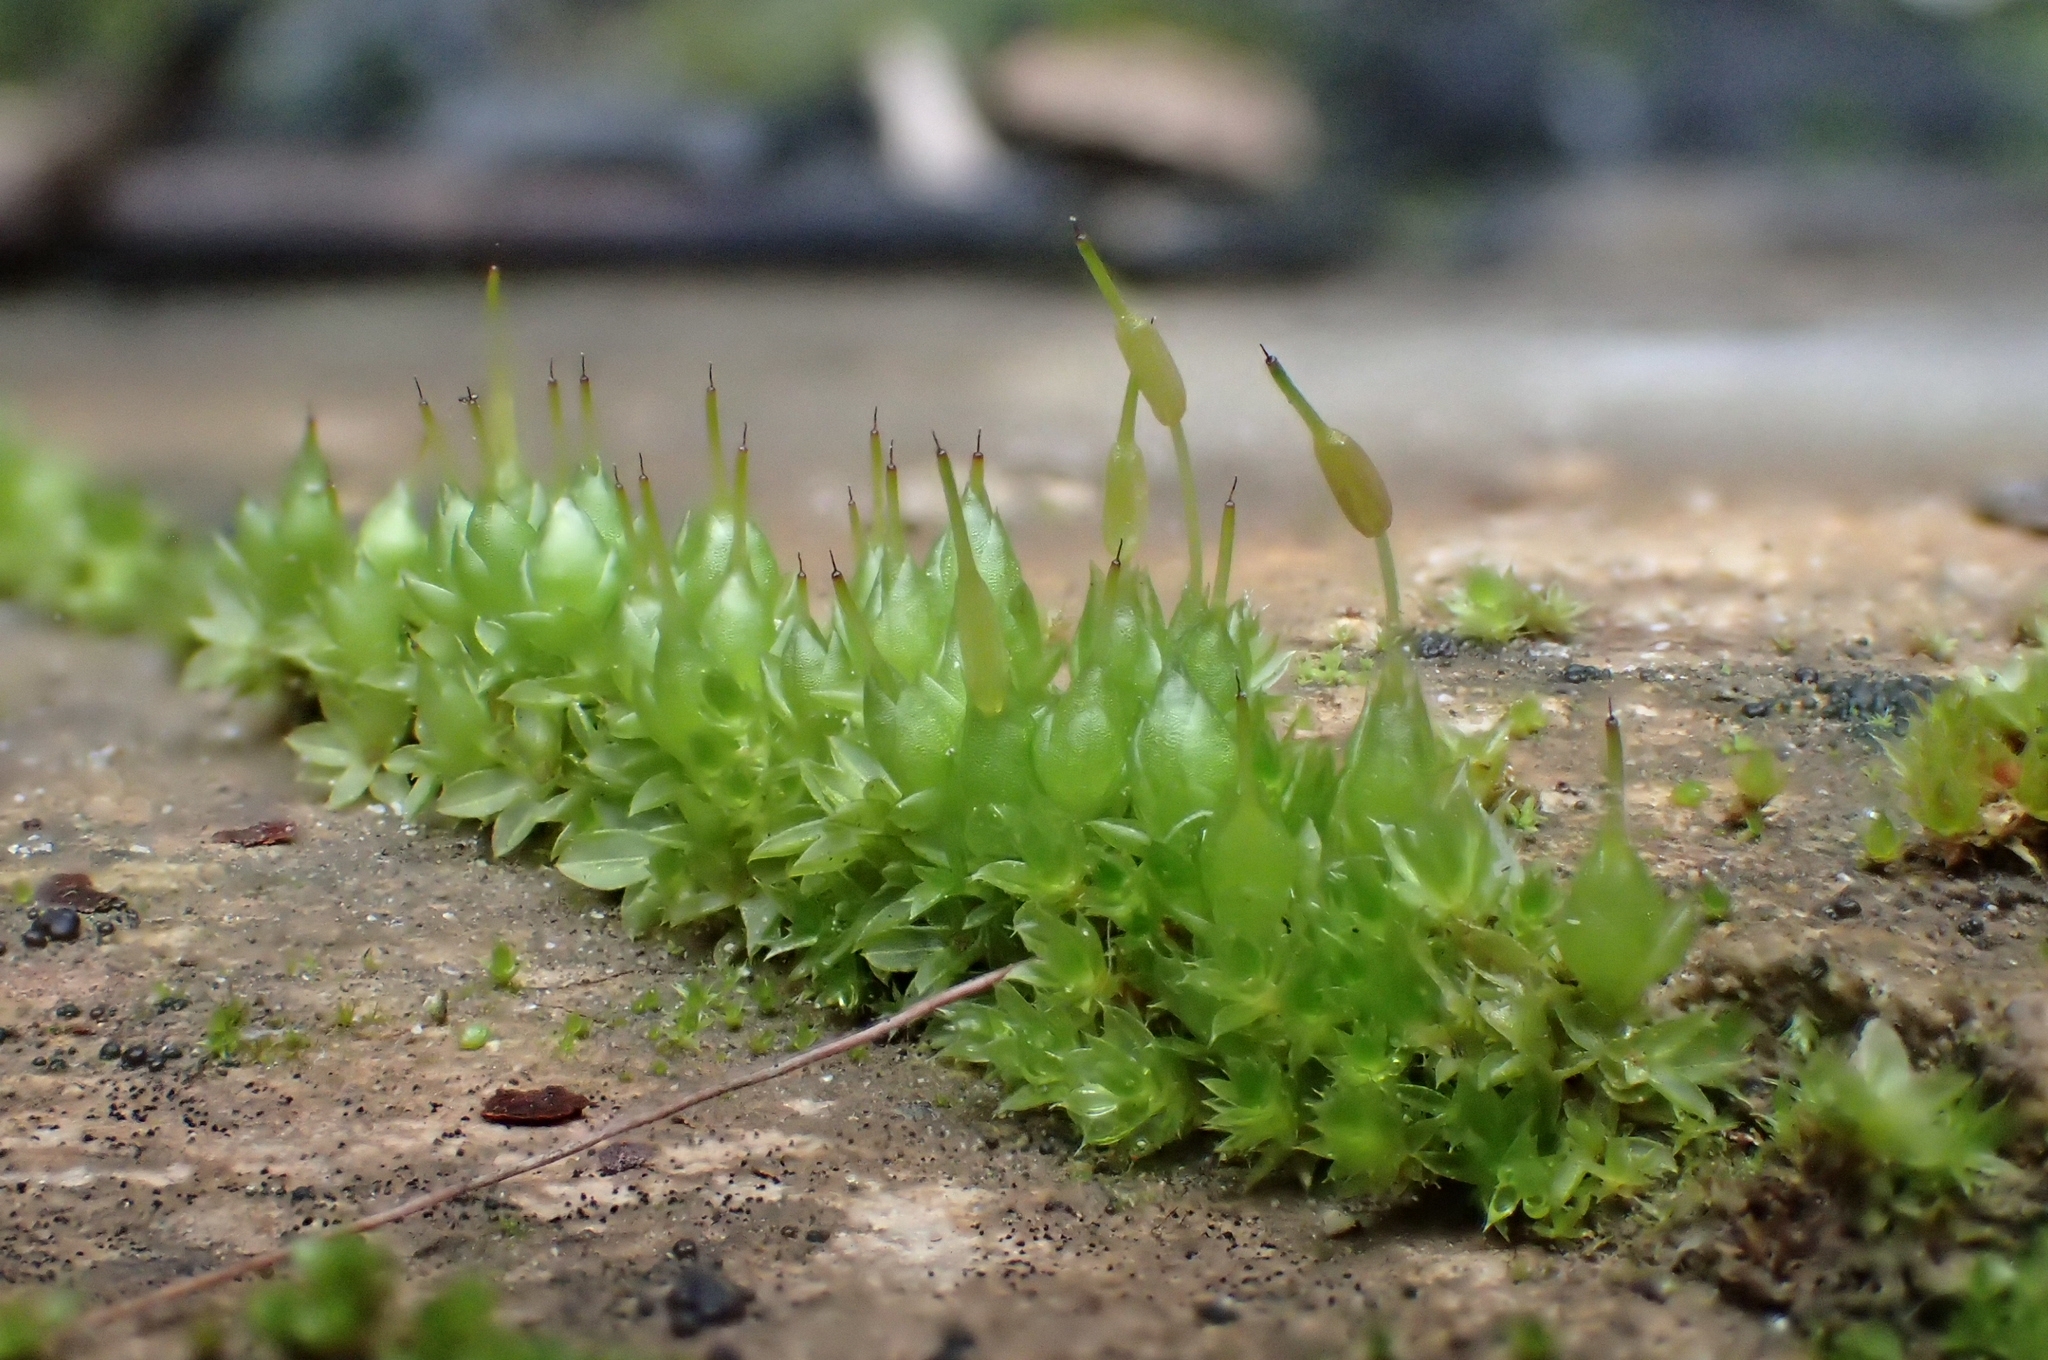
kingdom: Plantae
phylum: Bryophyta
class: Bryopsida
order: Funariales
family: Funariaceae
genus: Funaria
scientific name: Funaria hygrometrica
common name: Common cord moss
